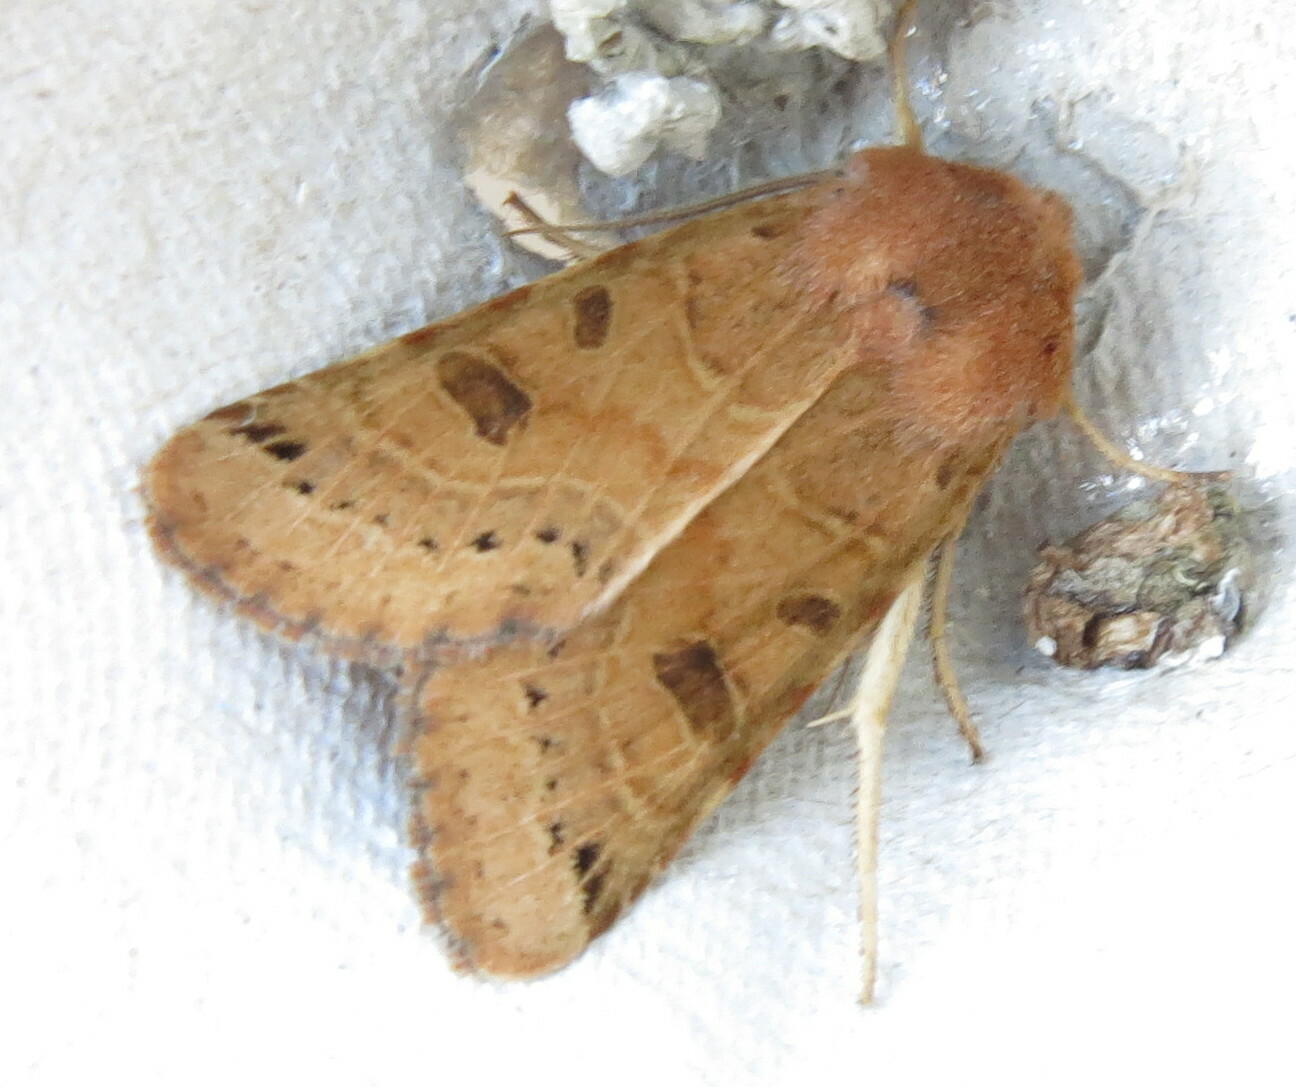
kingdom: Animalia
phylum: Arthropoda
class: Insecta
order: Lepidoptera
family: Noctuidae
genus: Agrochola
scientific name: Agrochola lunosa
